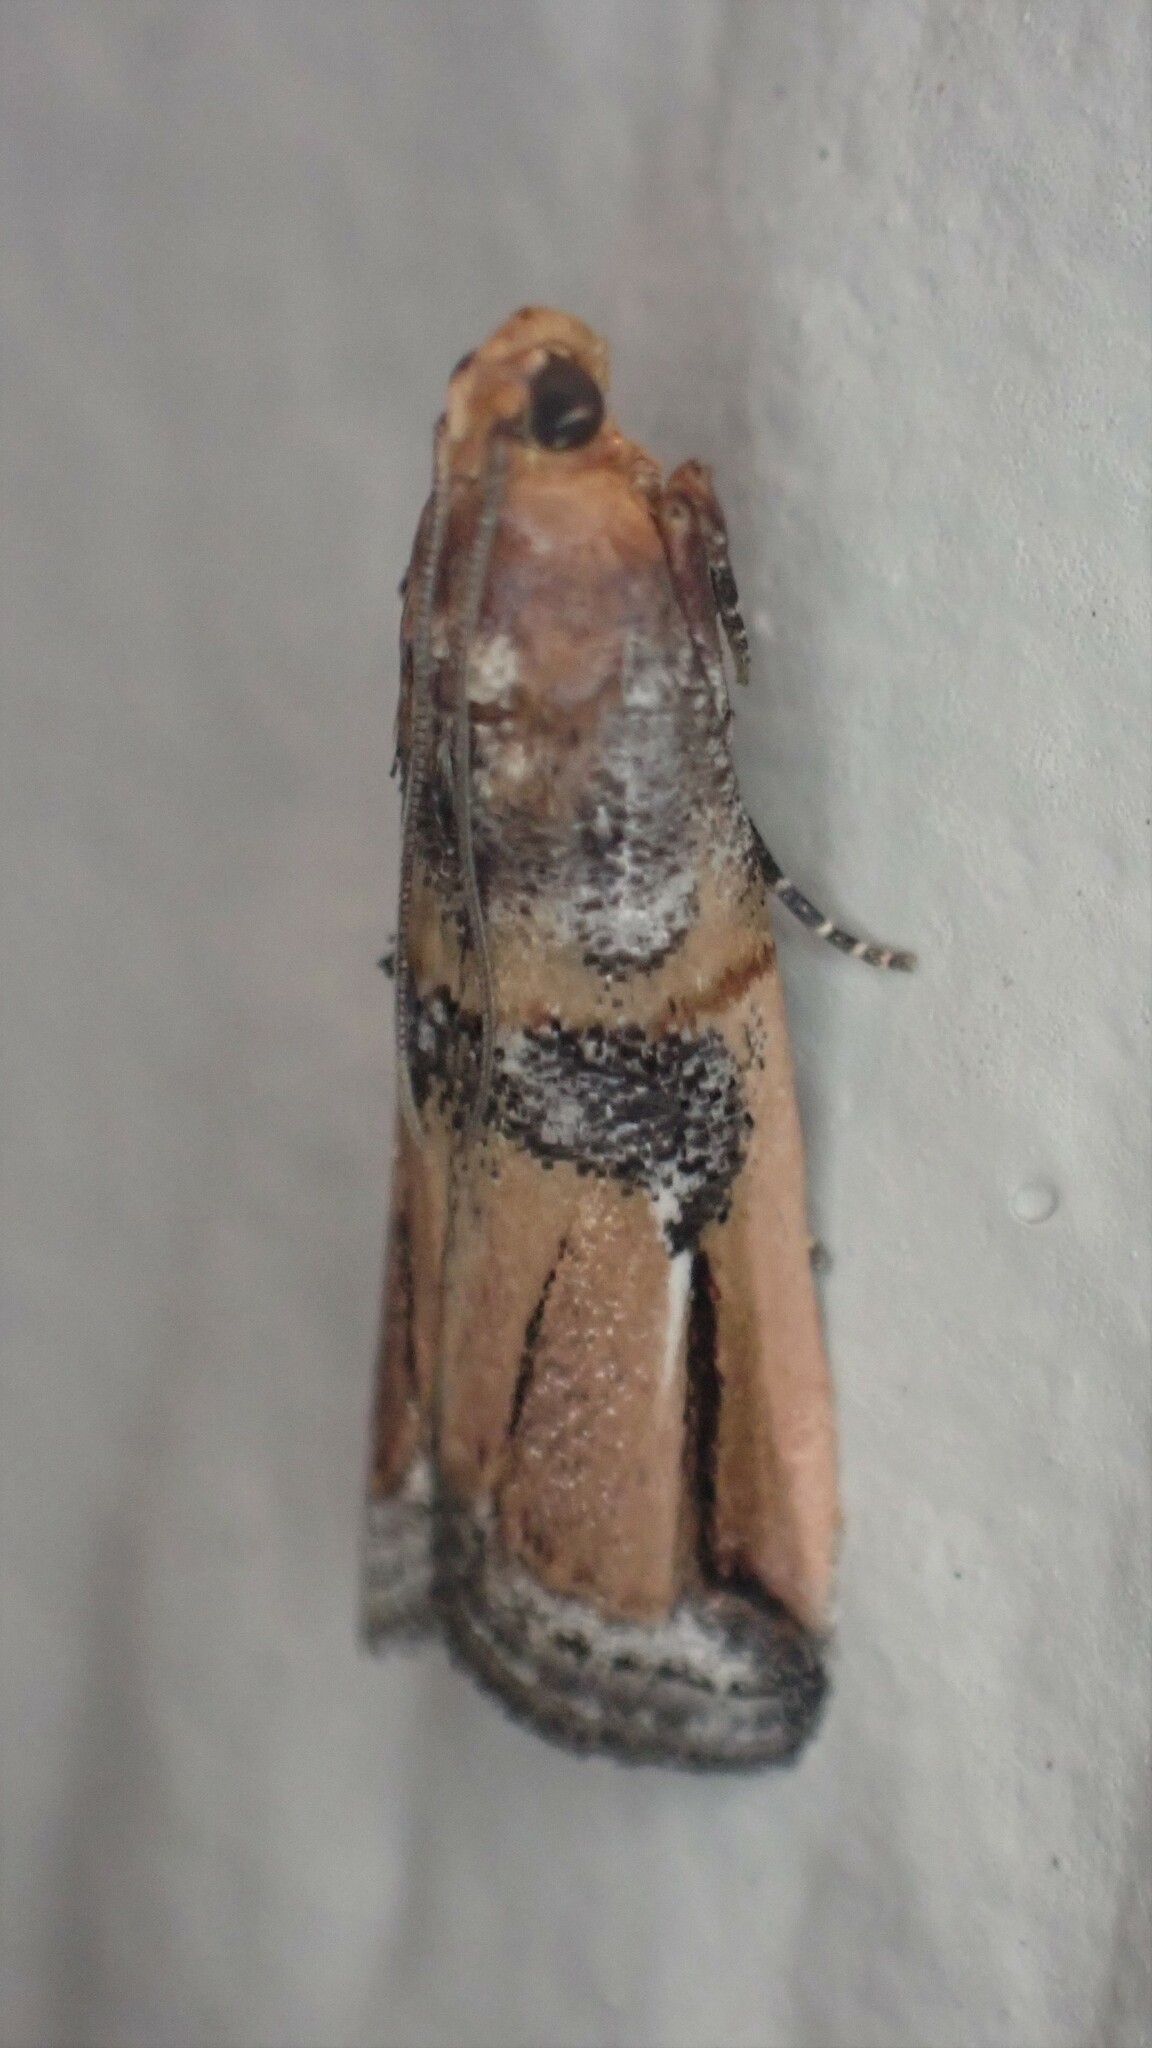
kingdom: Animalia
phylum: Arthropoda
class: Insecta
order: Lepidoptera
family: Pyralidae
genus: Dasypyga
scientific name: Dasypyga alternosquamella
